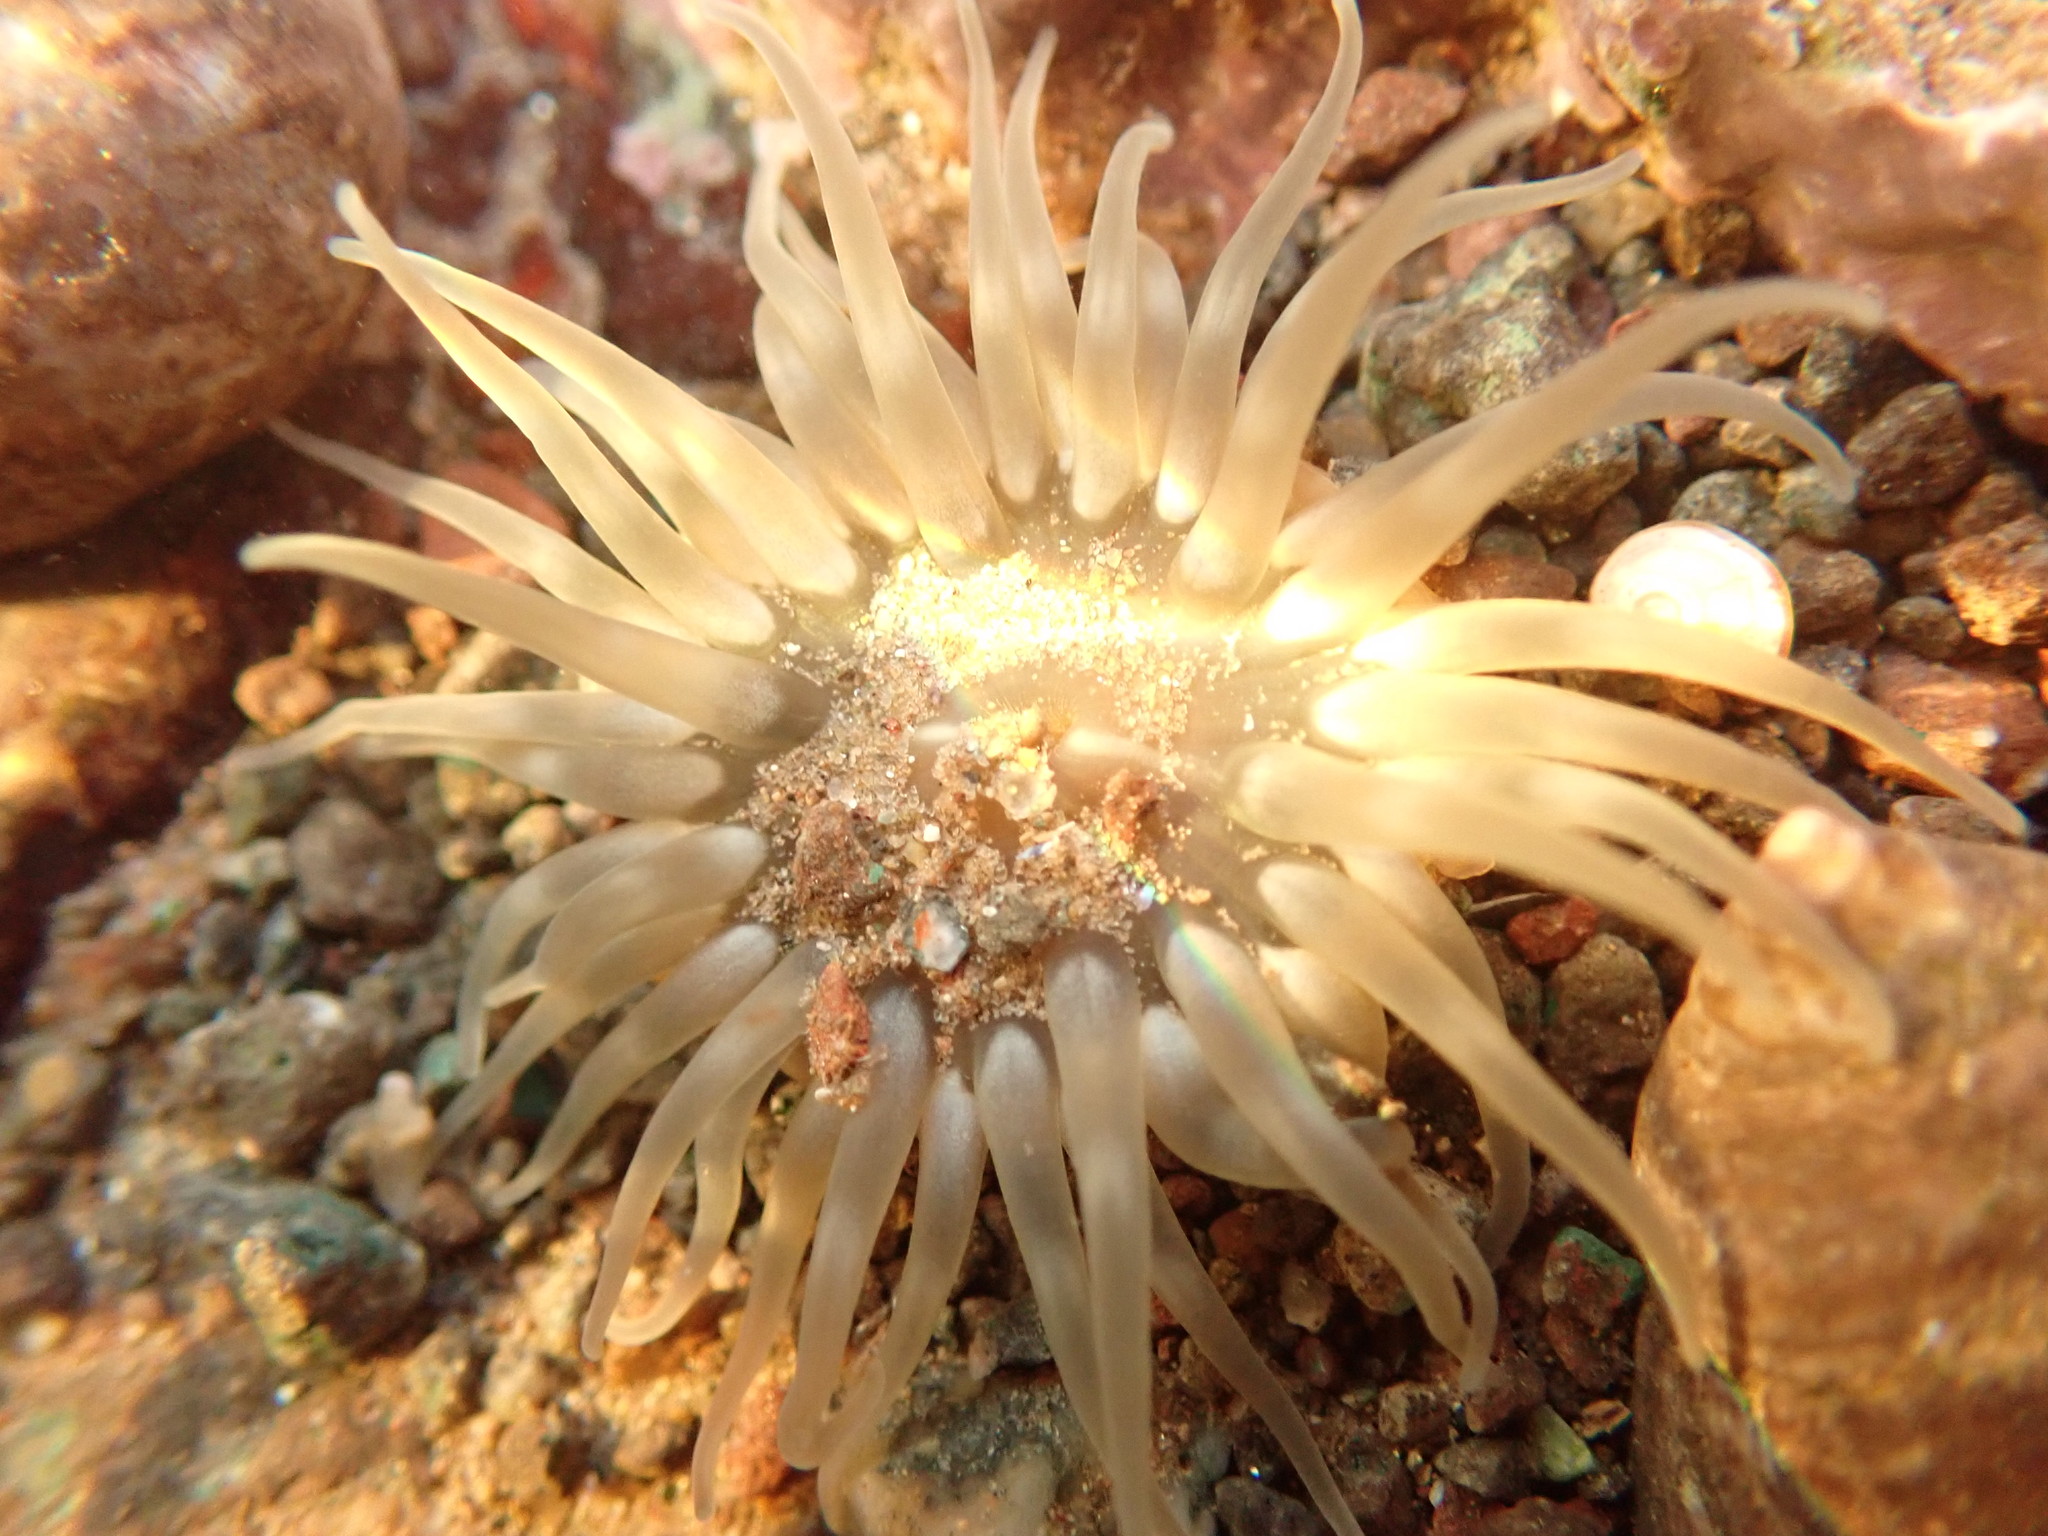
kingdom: Animalia
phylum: Cnidaria
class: Anthozoa
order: Actiniaria
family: Actiniidae
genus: Aulactinia
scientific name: Aulactinia stella
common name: Silver-spotted sea anemone
